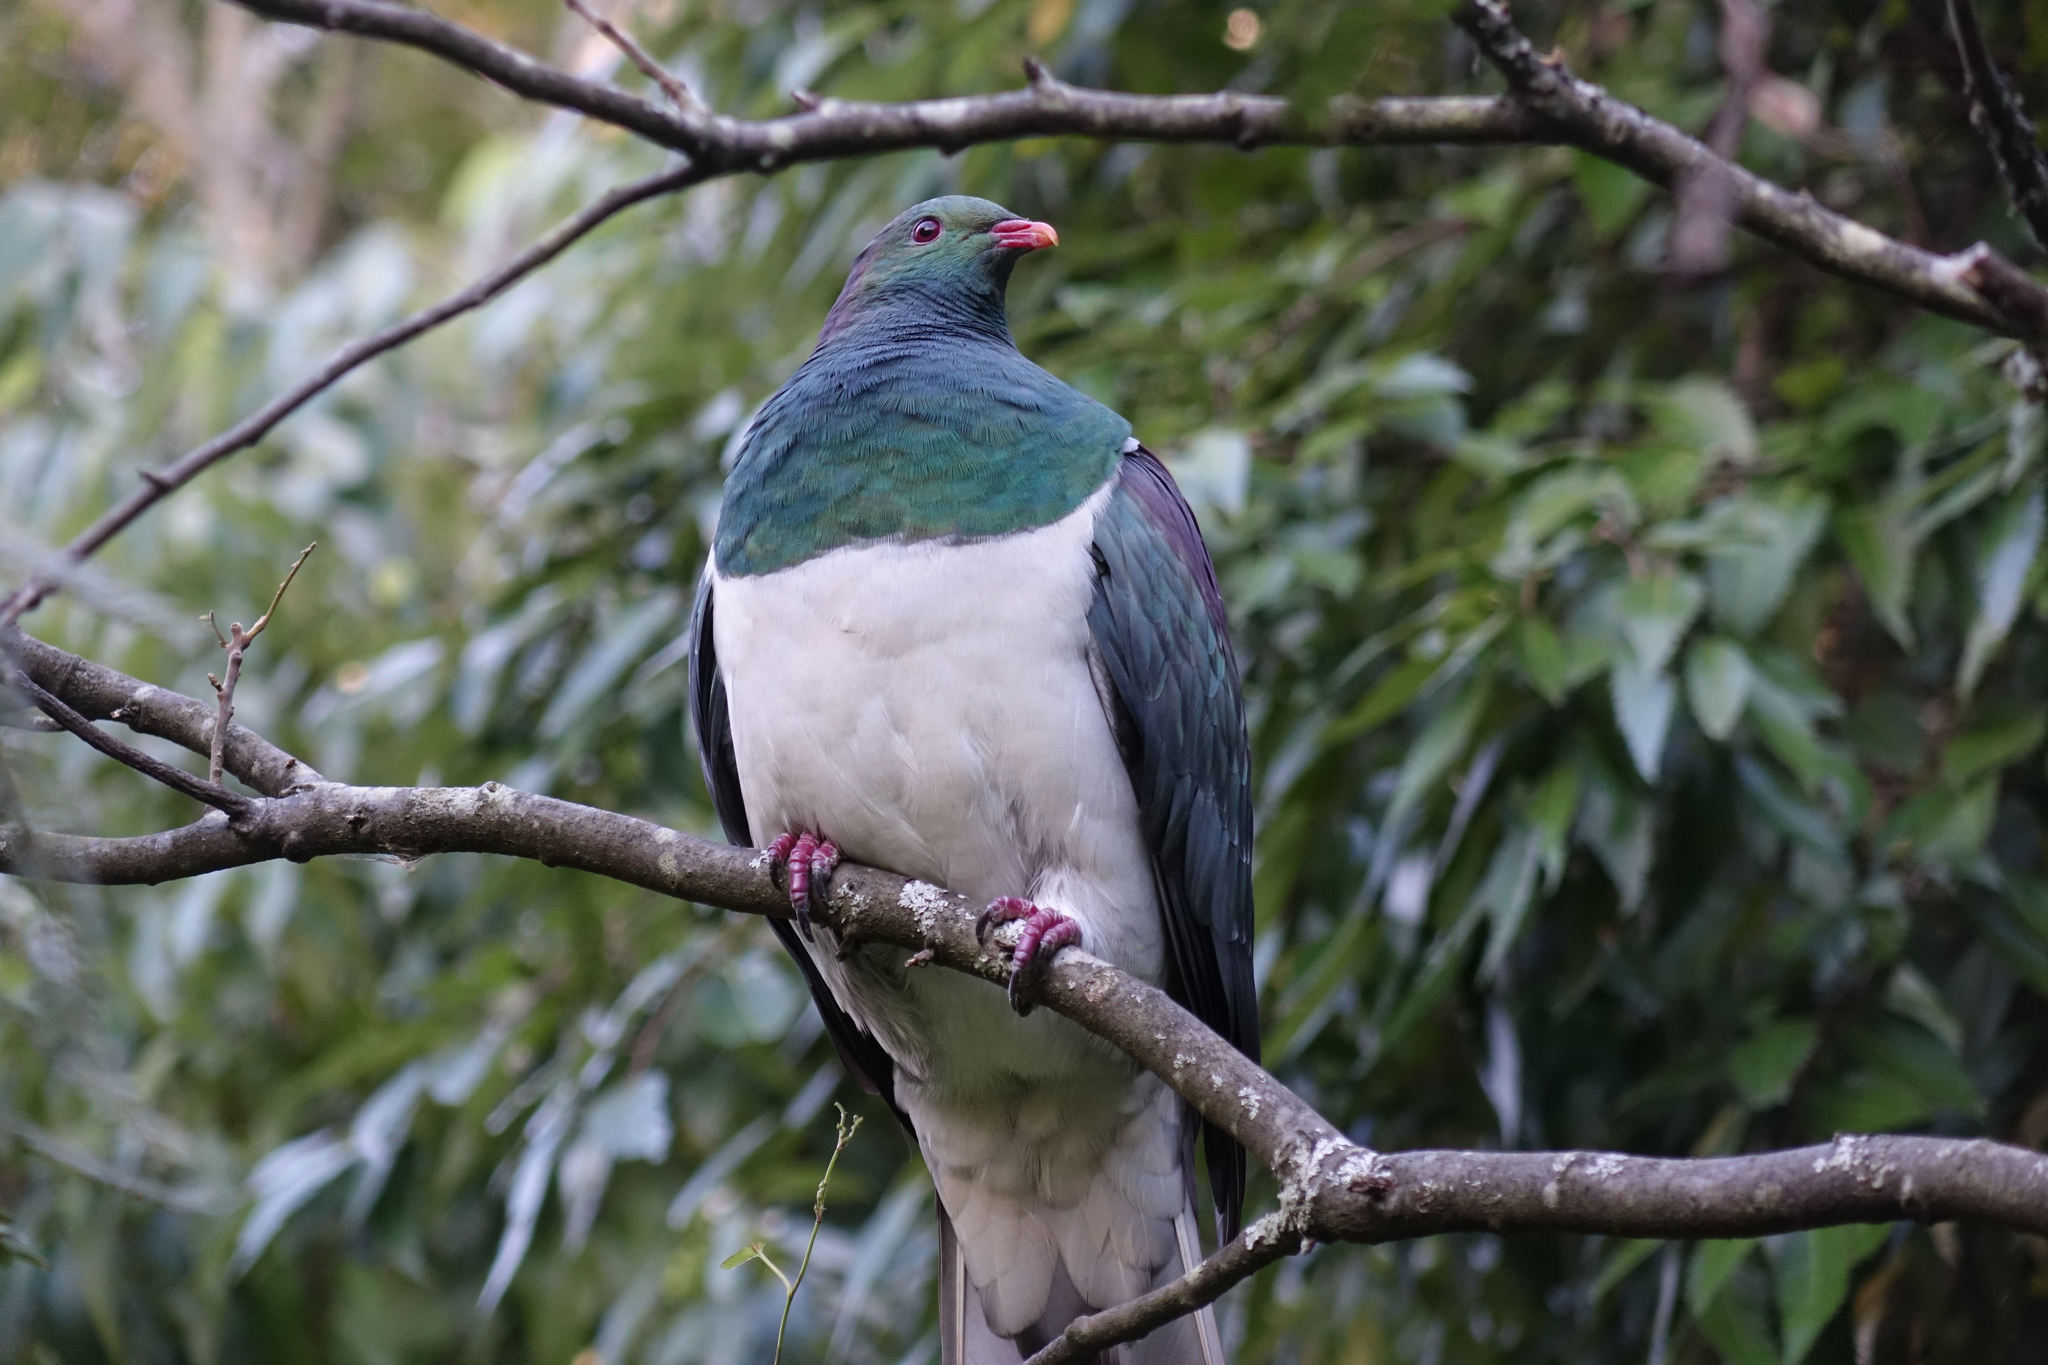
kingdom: Animalia
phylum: Chordata
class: Aves
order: Columbiformes
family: Columbidae
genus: Hemiphaga
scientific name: Hemiphaga novaeseelandiae
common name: New zealand pigeon
